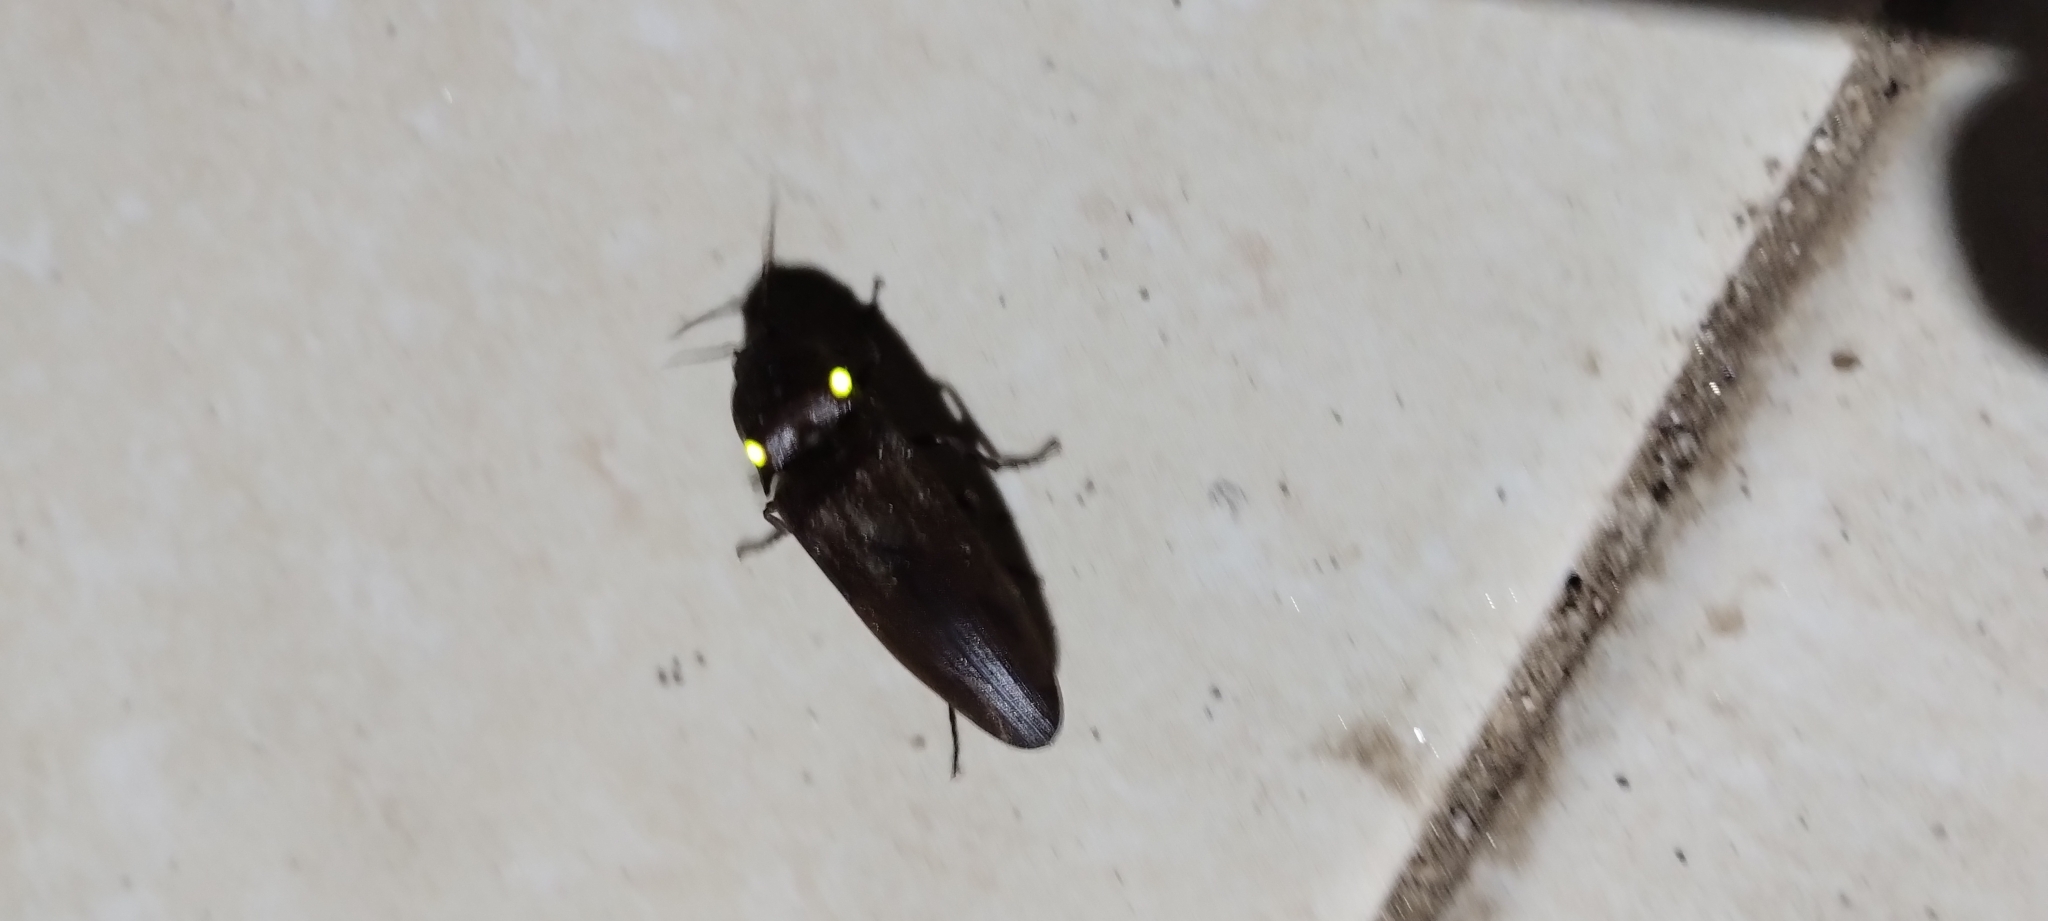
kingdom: Animalia
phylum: Arthropoda
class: Insecta
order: Coleoptera
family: Elateridae
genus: Pyrophorus
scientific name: Pyrophorus
